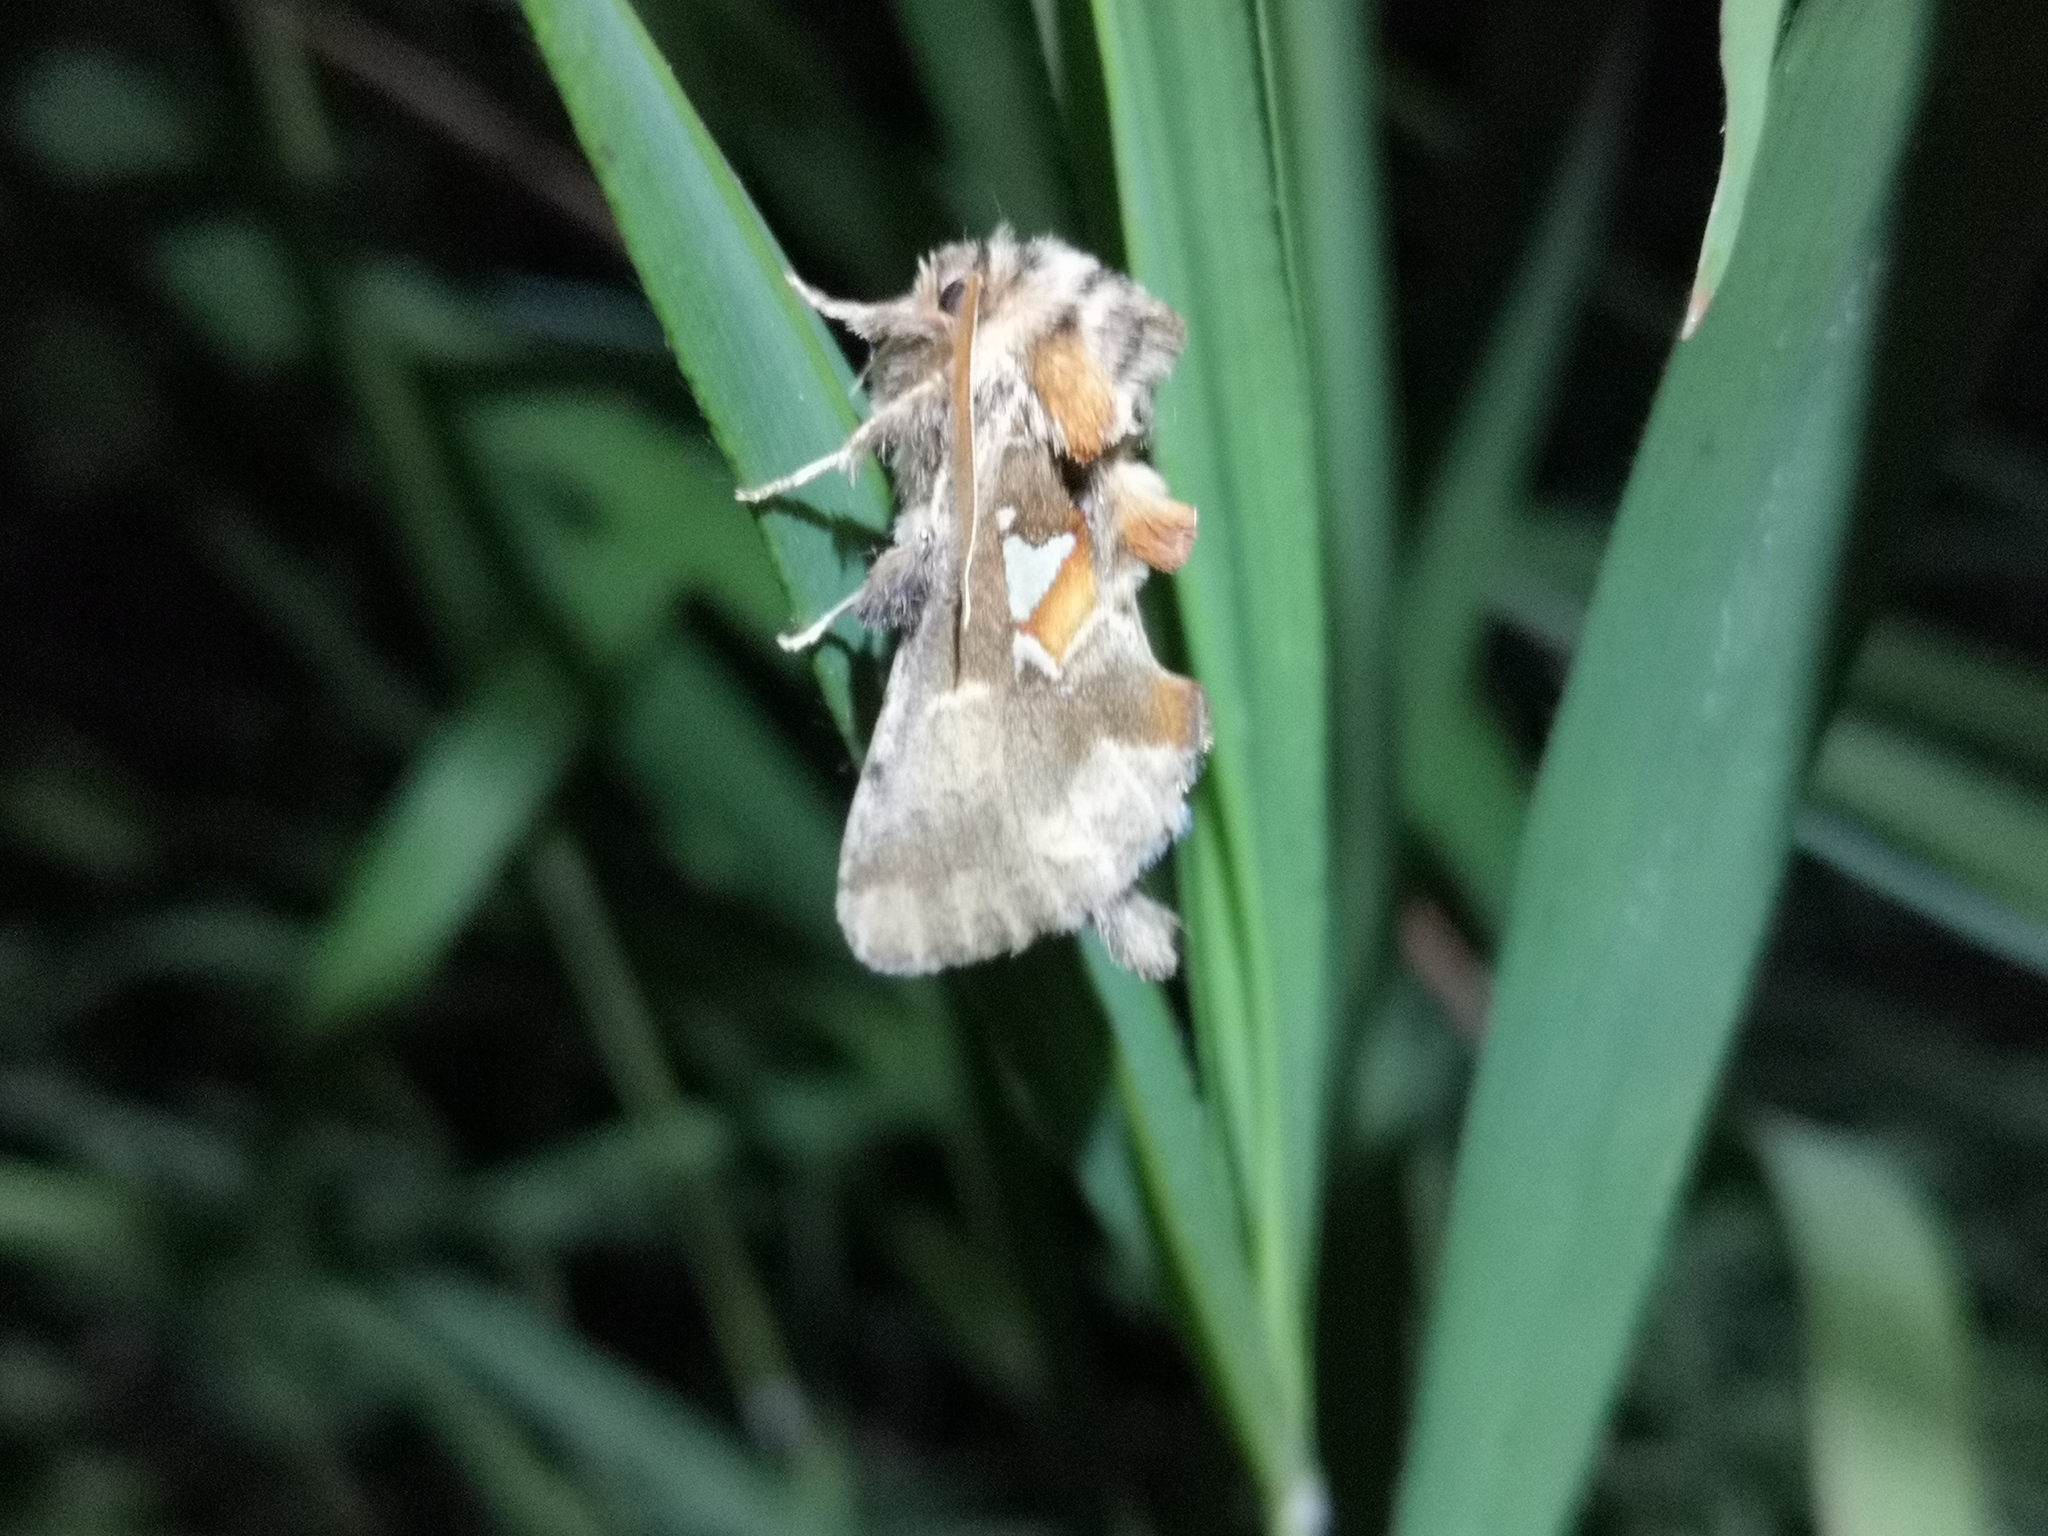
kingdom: Animalia
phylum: Arthropoda
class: Insecta
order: Lepidoptera
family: Notodontidae
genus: Spatalia
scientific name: Spatalia argentina
